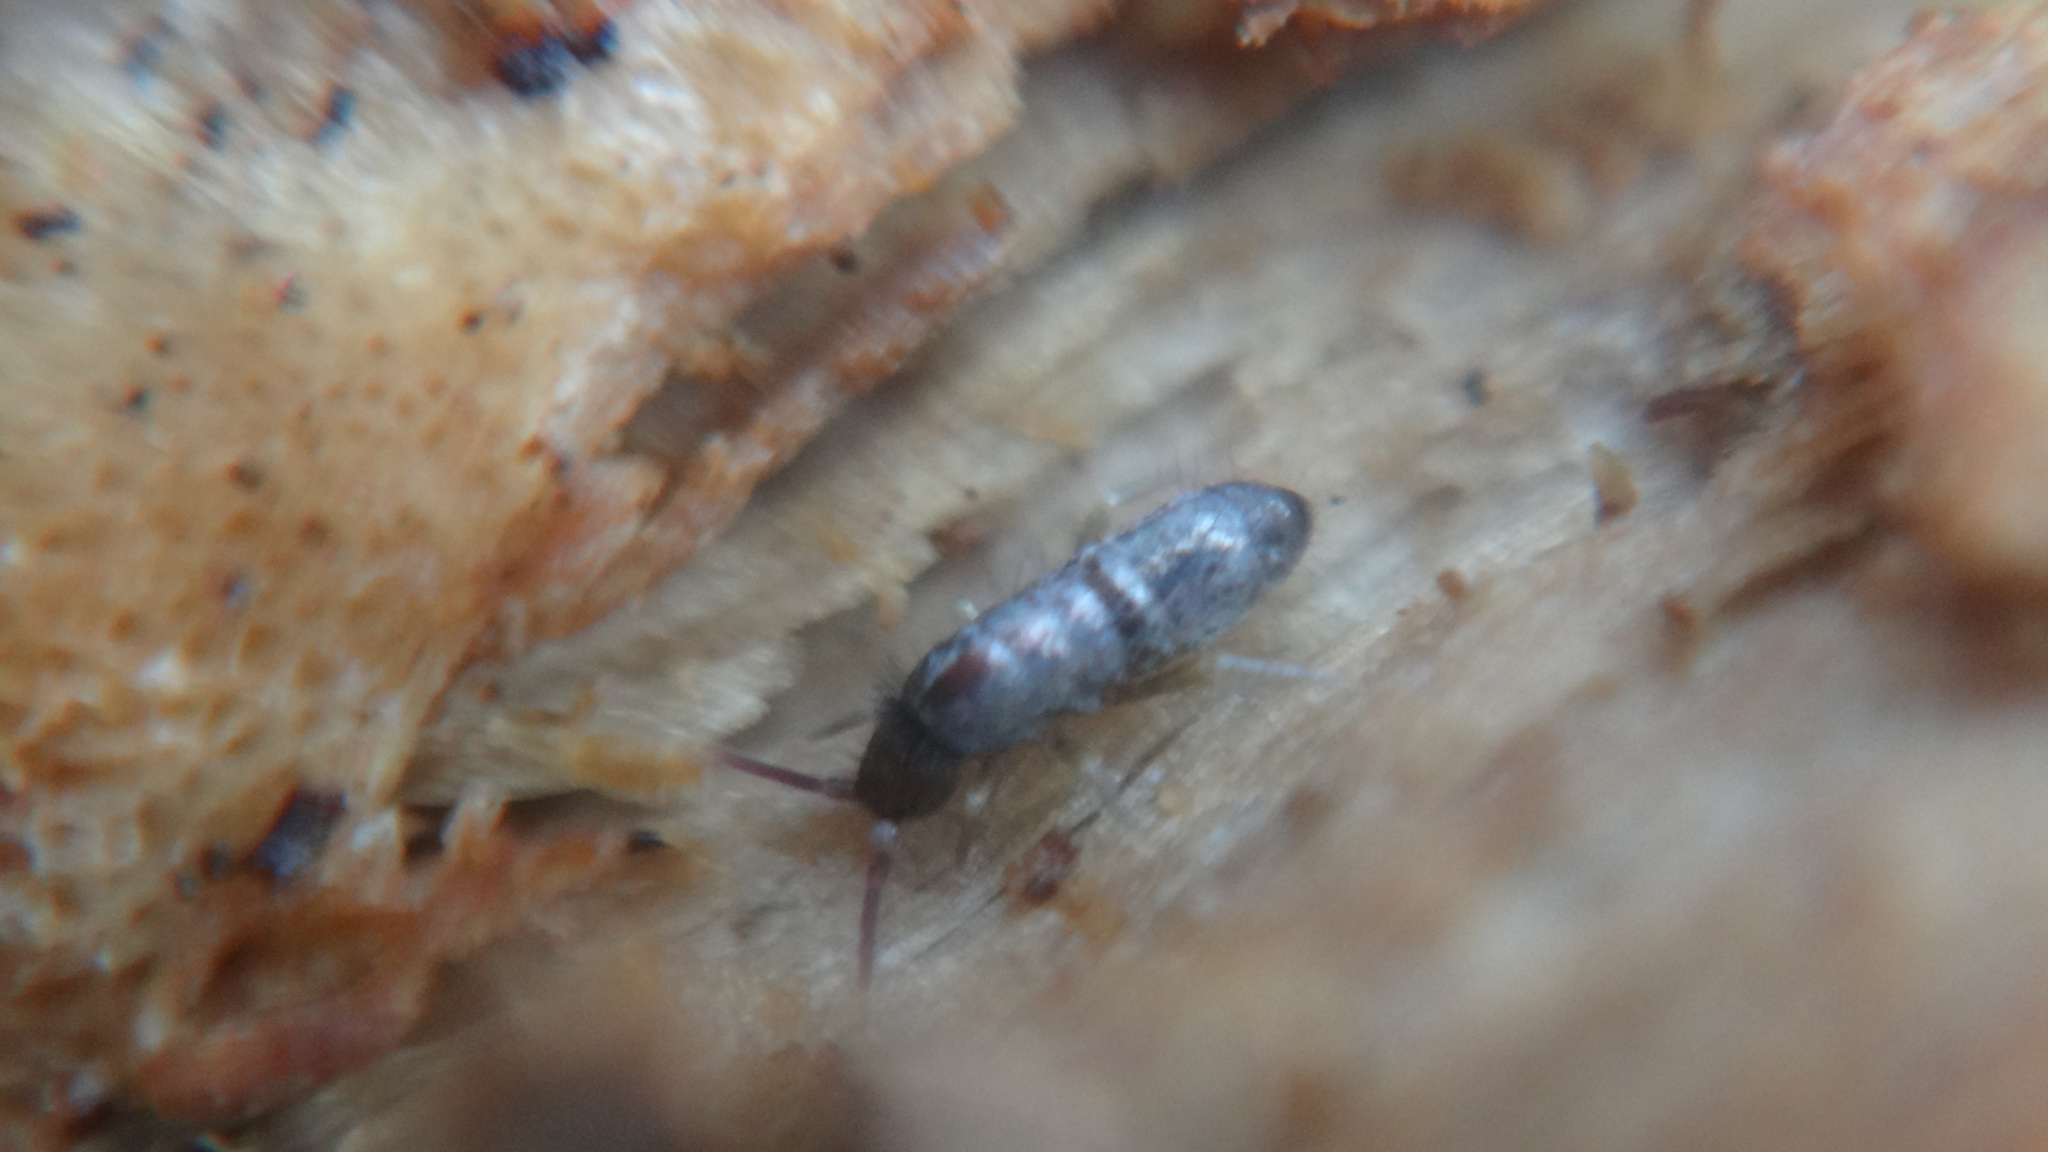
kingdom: Animalia
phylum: Arthropoda
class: Collembola
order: Entomobryomorpha
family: Tomoceridae
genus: Tomocerus
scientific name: Tomocerus vulgaris
